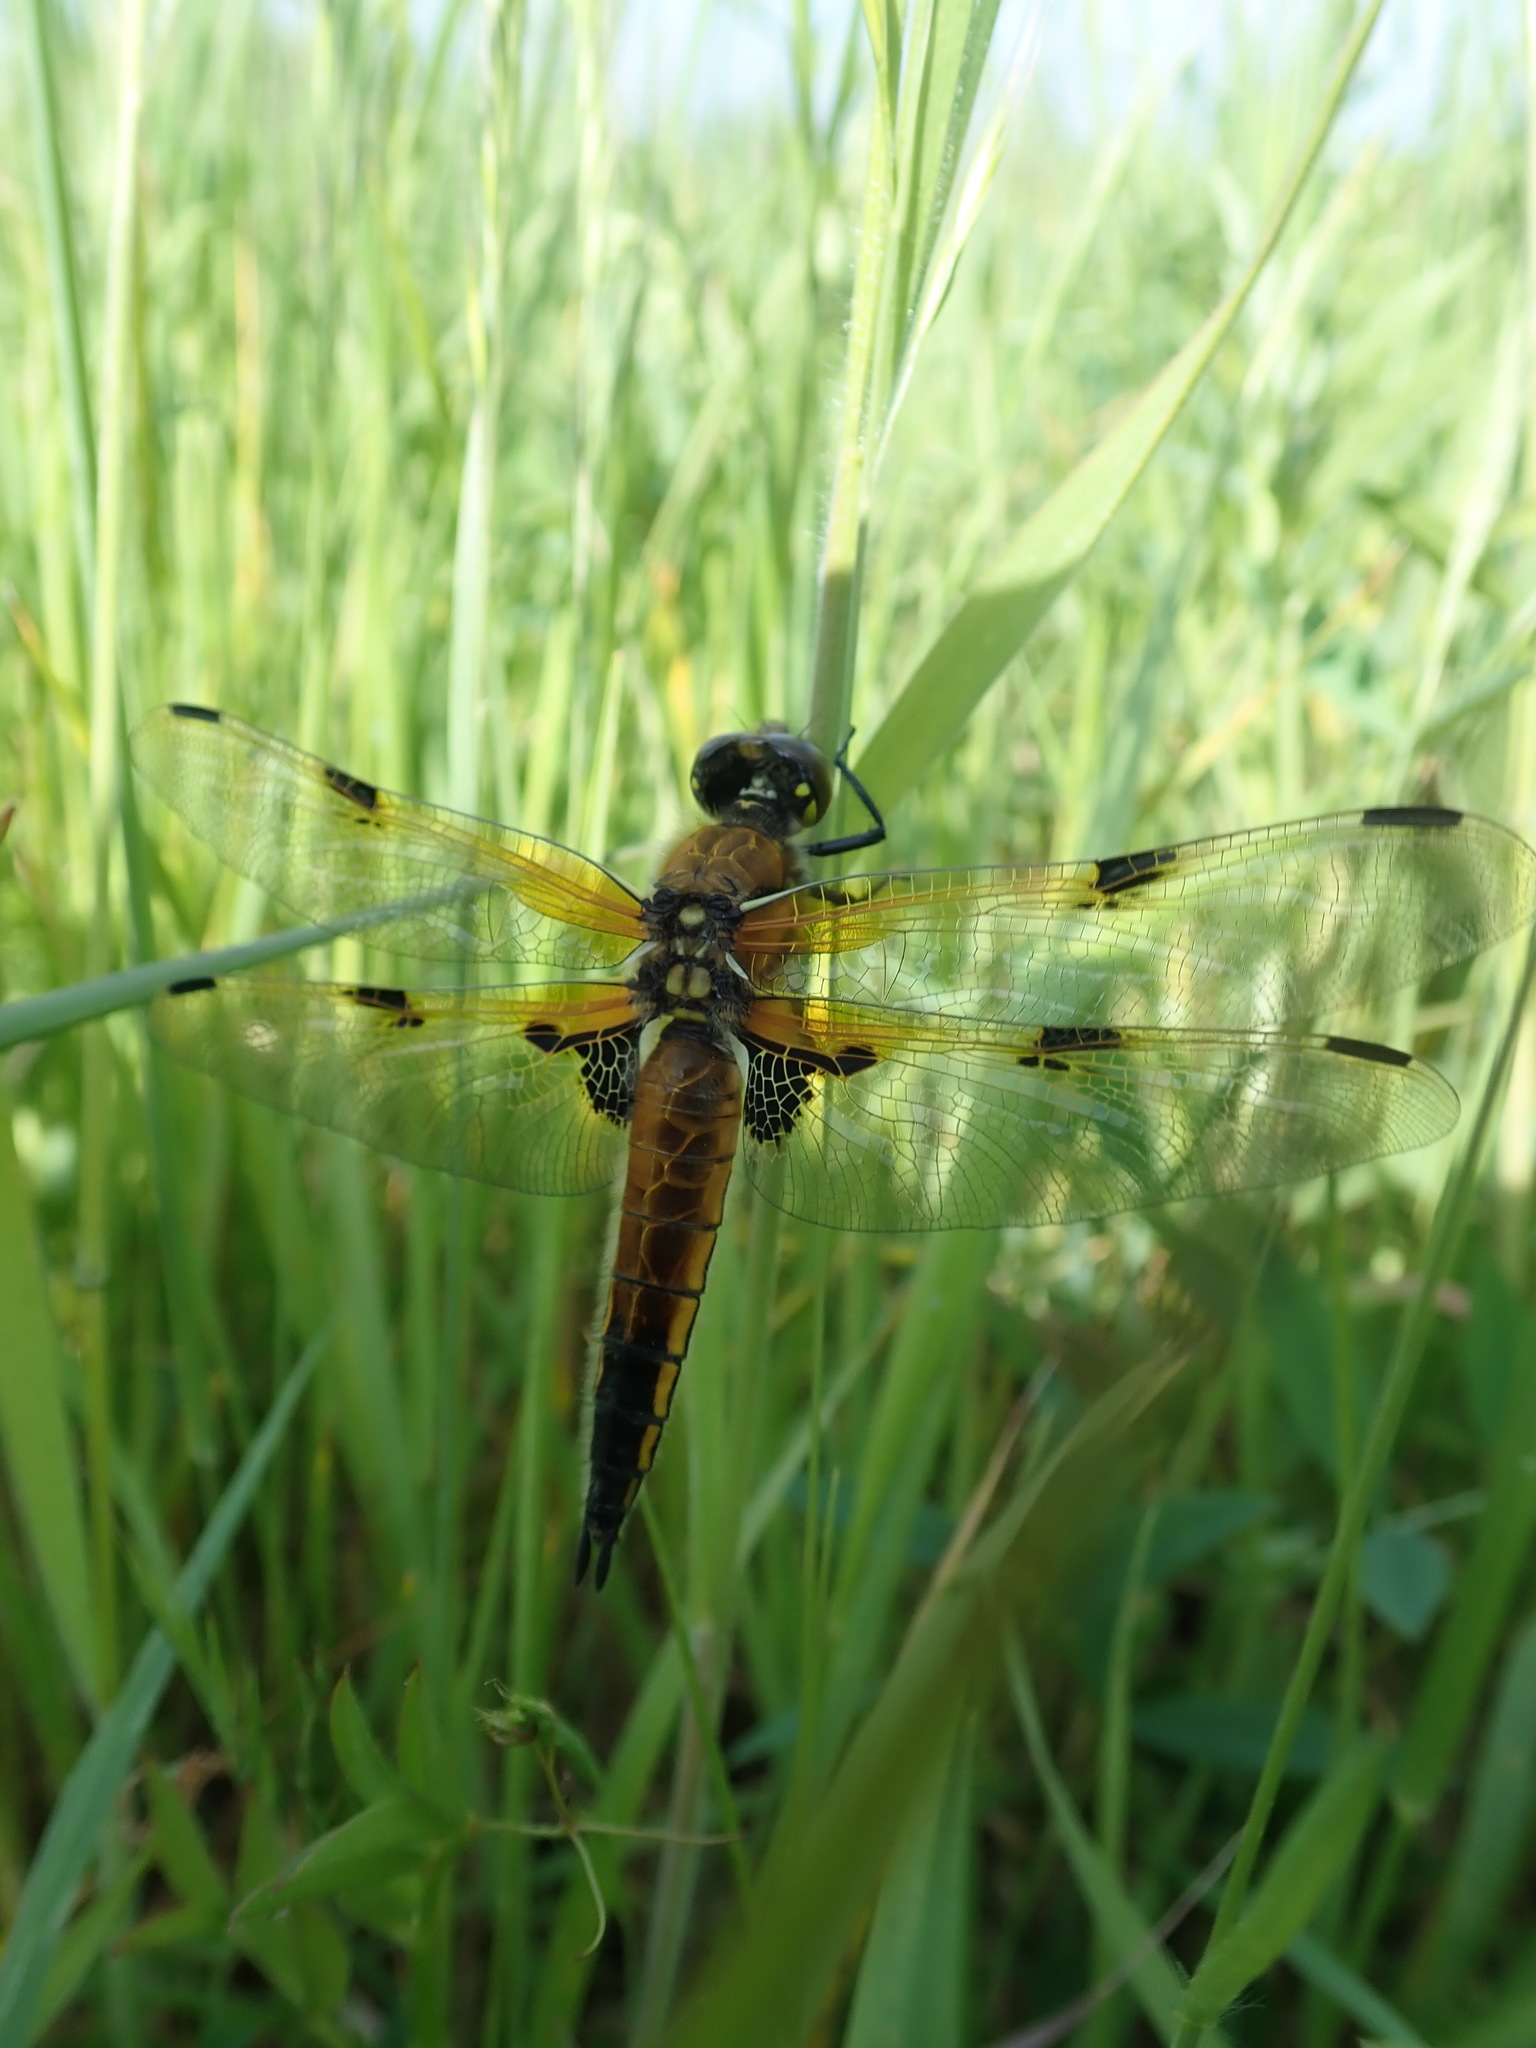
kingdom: Animalia
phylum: Arthropoda
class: Insecta
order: Odonata
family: Libellulidae
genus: Libellula
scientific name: Libellula quadrimaculata
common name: Four-spotted chaser
